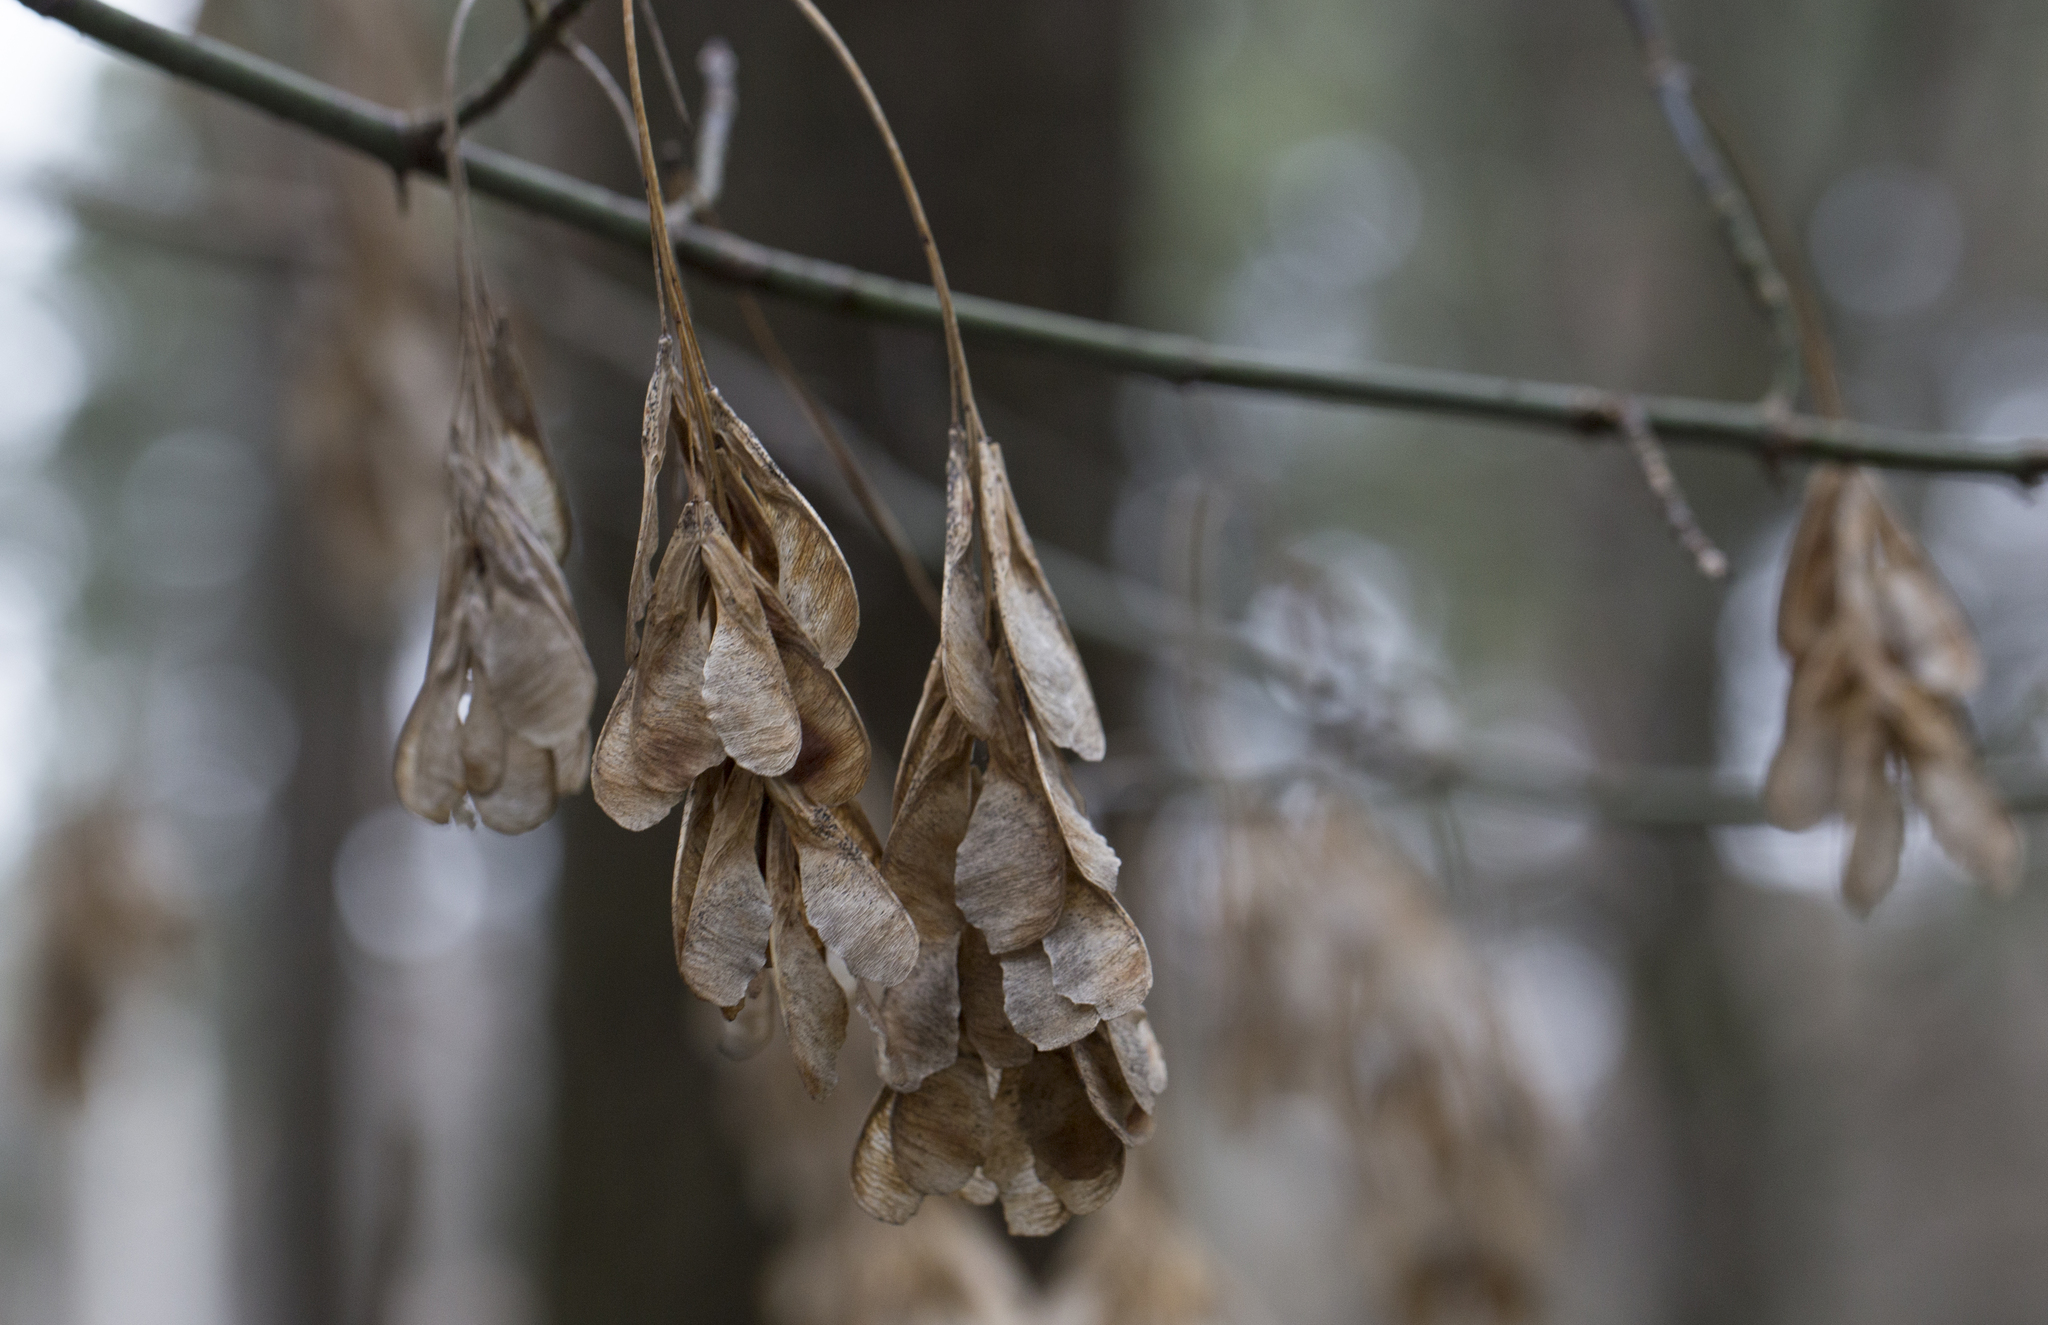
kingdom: Plantae
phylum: Tracheophyta
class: Magnoliopsida
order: Sapindales
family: Sapindaceae
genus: Acer
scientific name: Acer negundo
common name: Ashleaf maple
